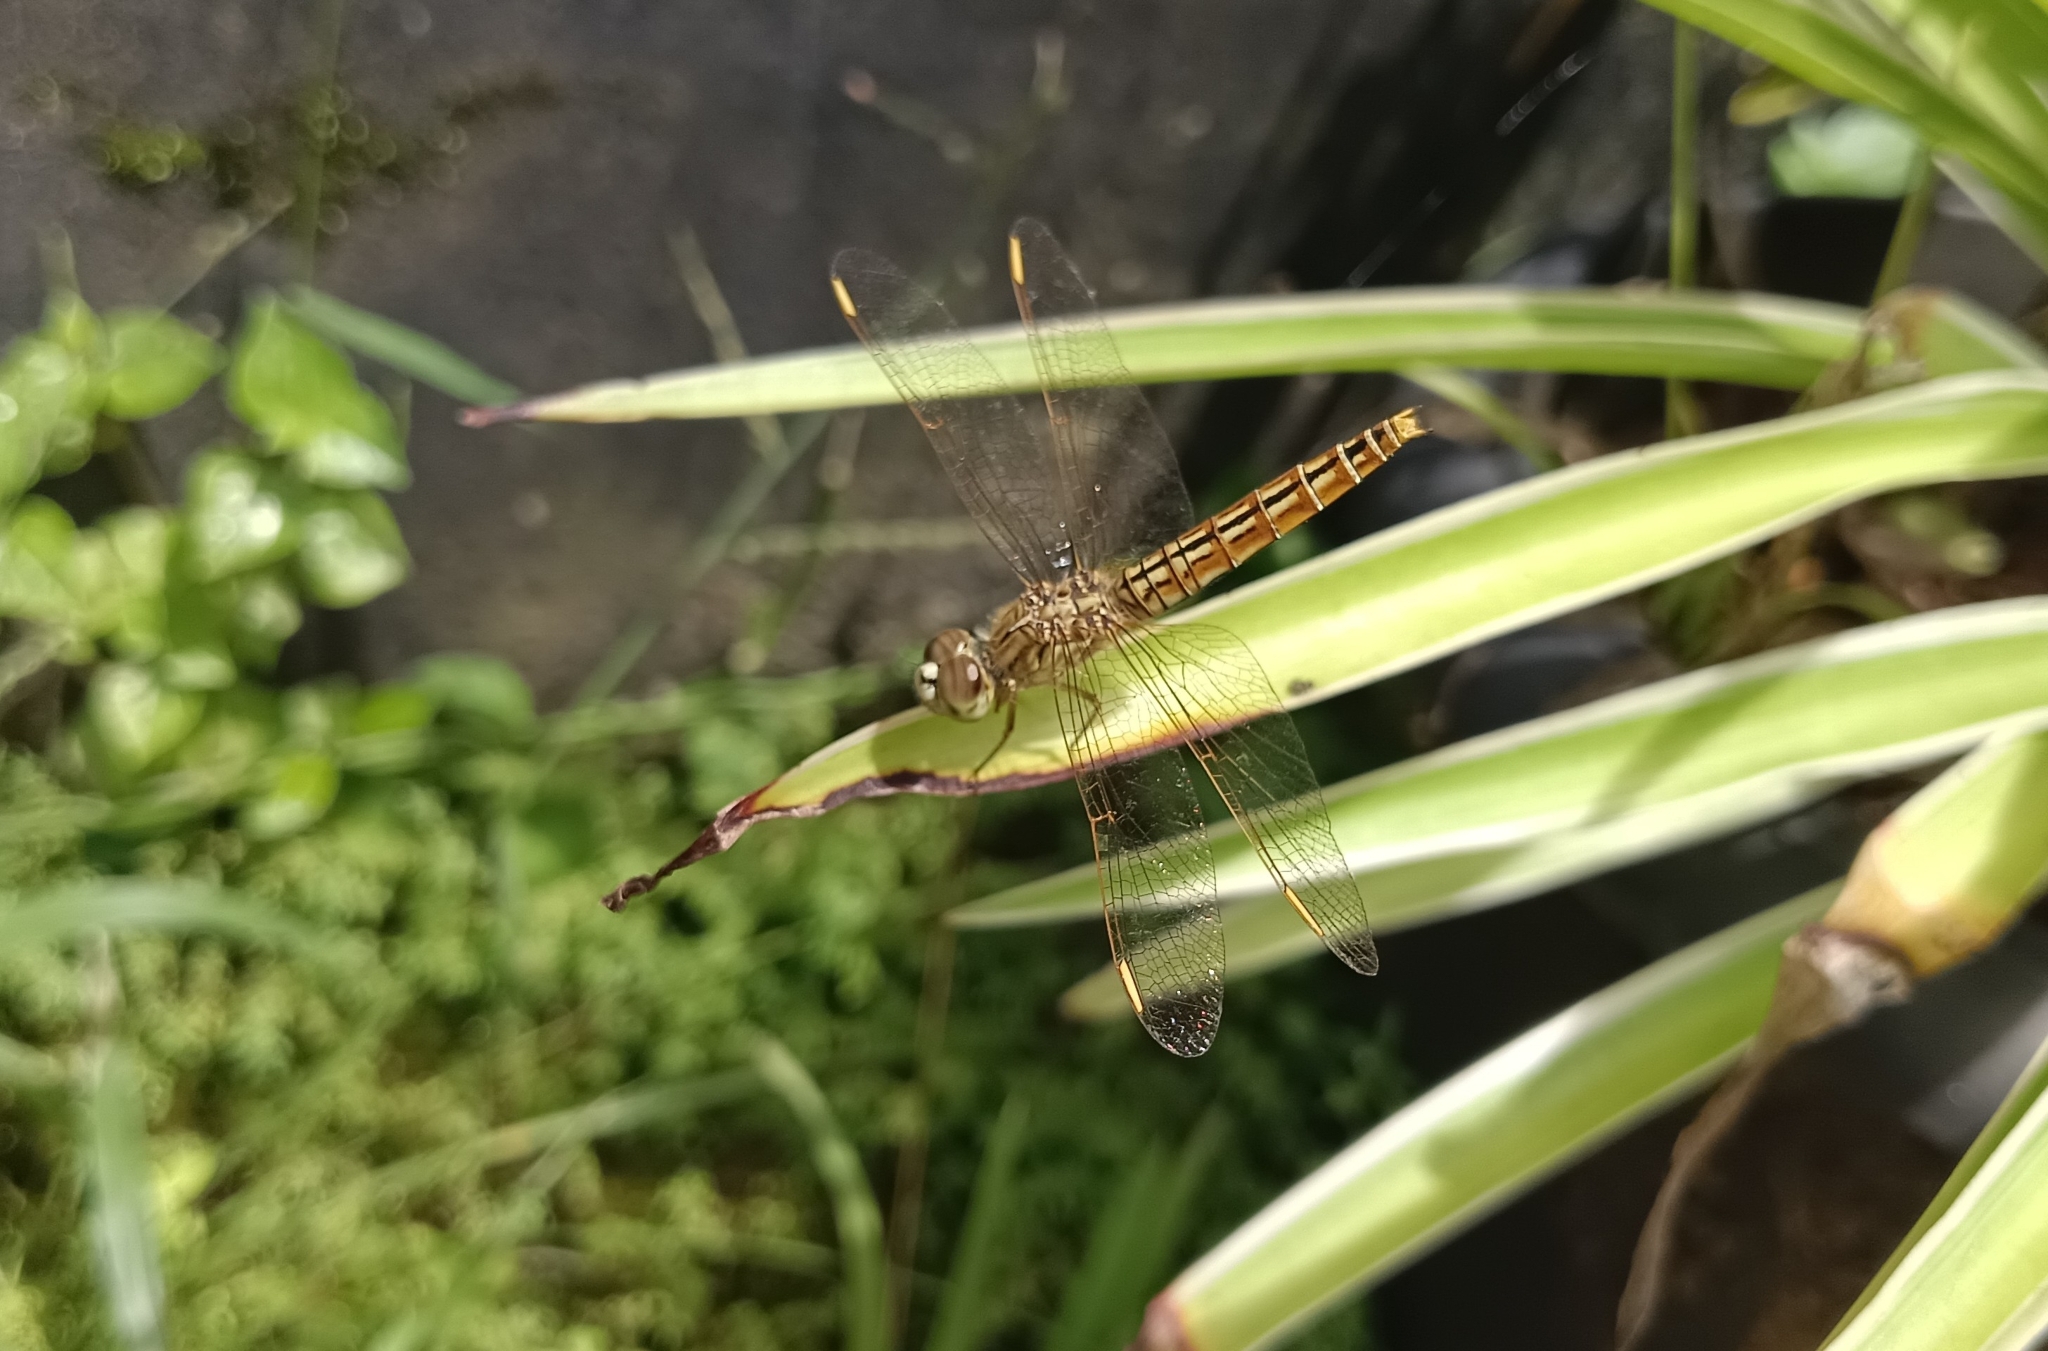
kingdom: Animalia
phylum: Arthropoda
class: Insecta
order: Odonata
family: Libellulidae
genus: Brachythemis
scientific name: Brachythemis contaminata
